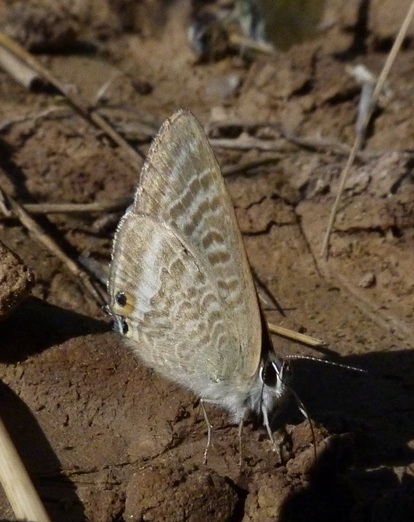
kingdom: Animalia
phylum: Arthropoda
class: Insecta
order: Lepidoptera
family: Lycaenidae
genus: Lampides
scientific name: Lampides boeticus
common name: Long-tailed blue
